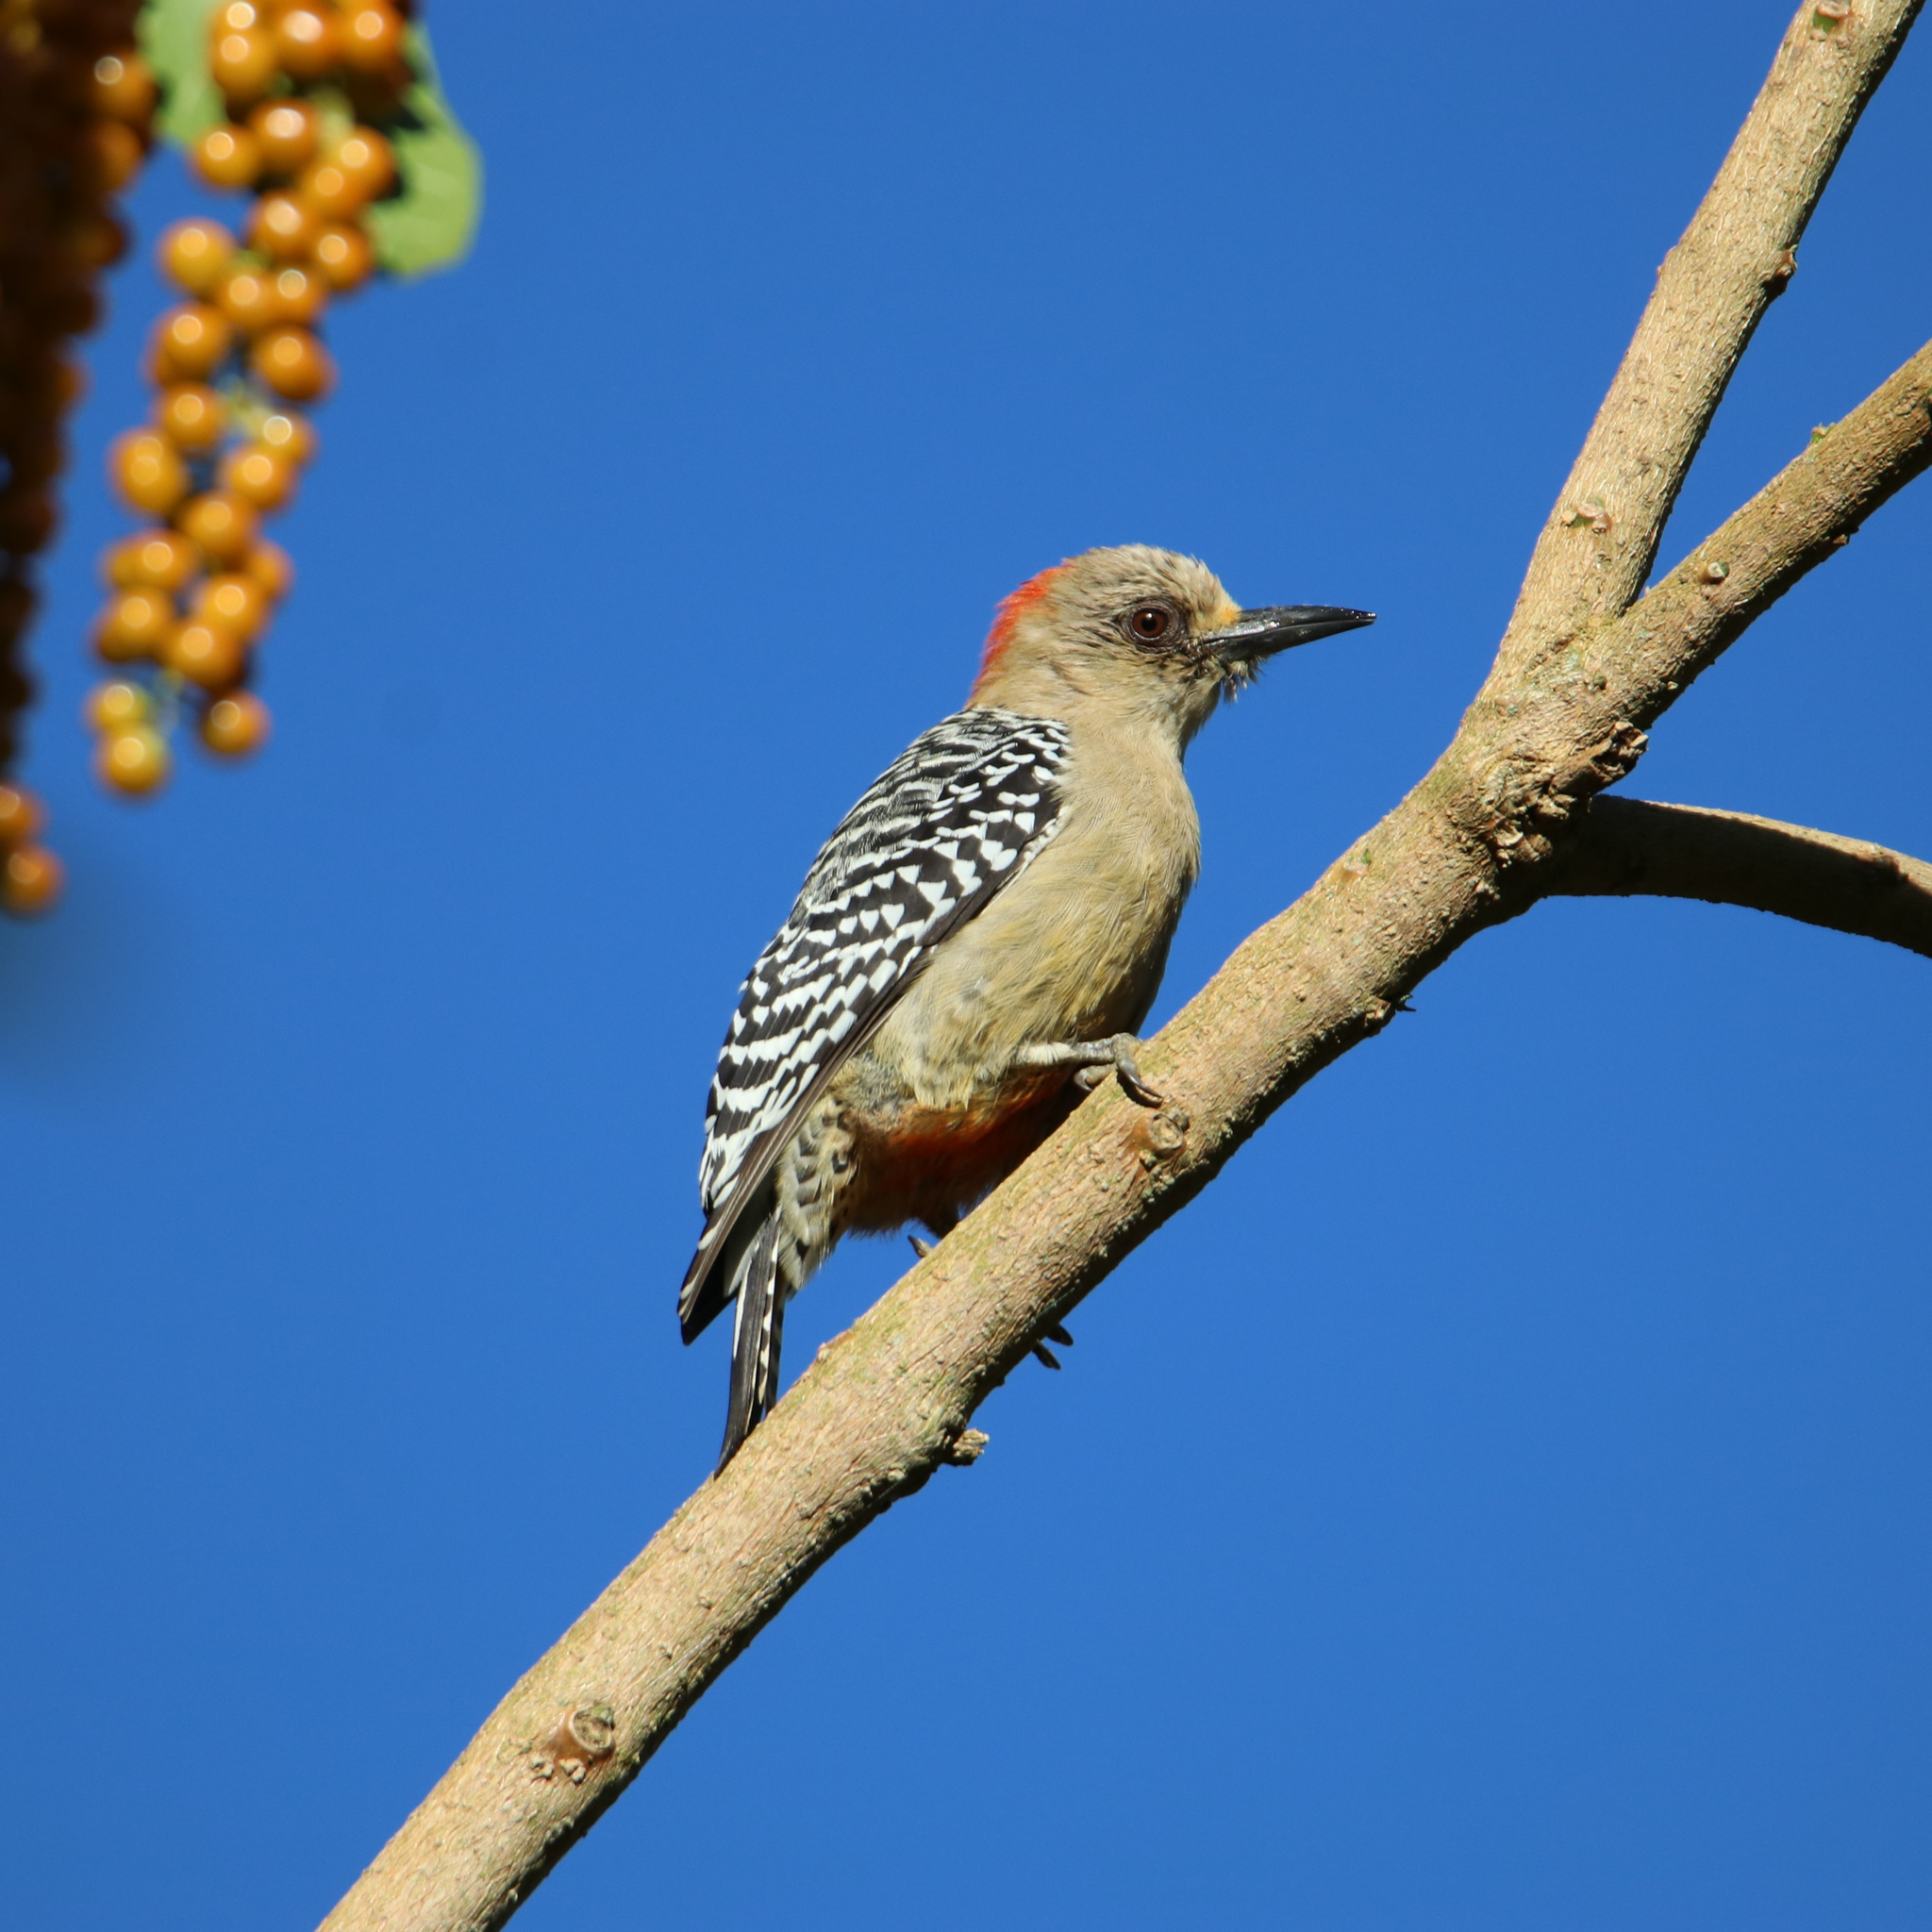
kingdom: Animalia
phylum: Chordata
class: Aves
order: Piciformes
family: Picidae
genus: Melanerpes
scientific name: Melanerpes rubricapillus
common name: Red-crowned woodpecker
